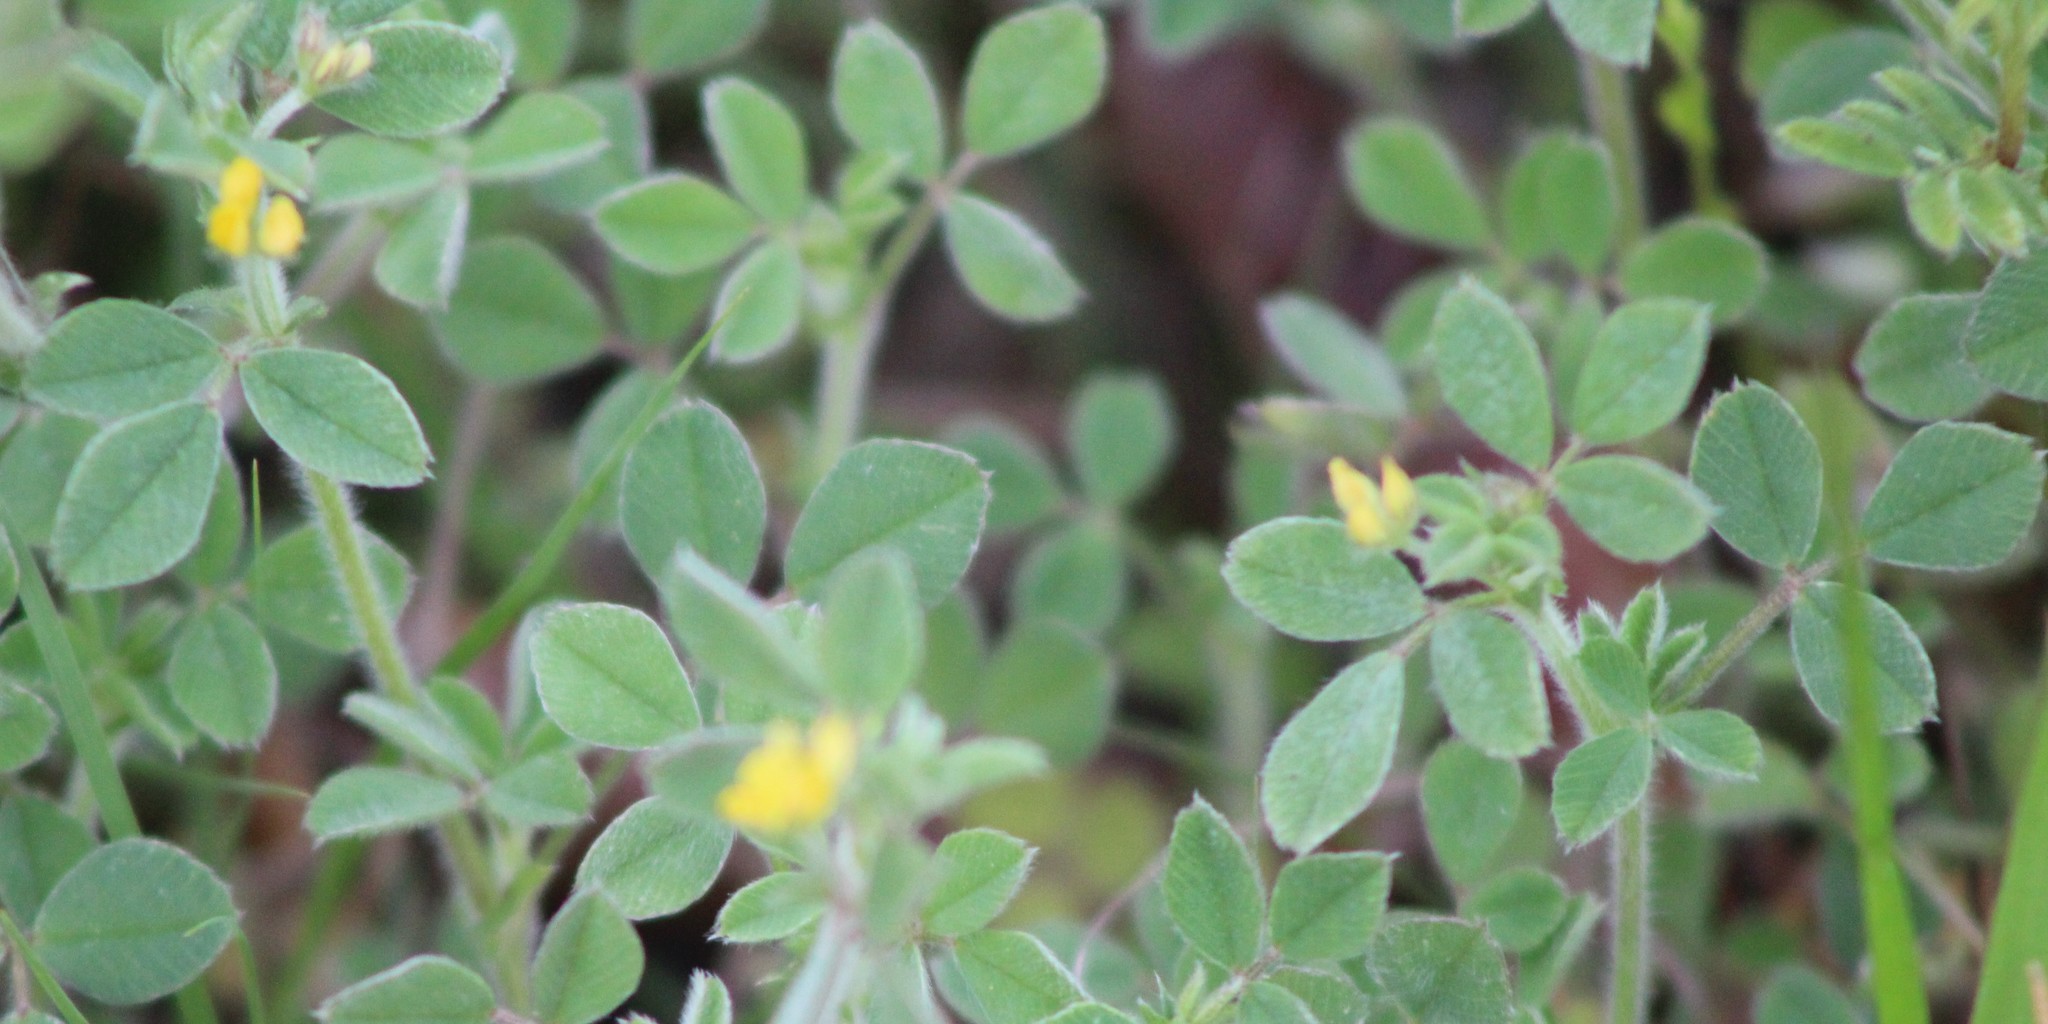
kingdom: Plantae
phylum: Tracheophyta
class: Magnoliopsida
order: Fabales
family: Fabaceae
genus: Medicago
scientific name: Medicago minima
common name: Little bur-clover
